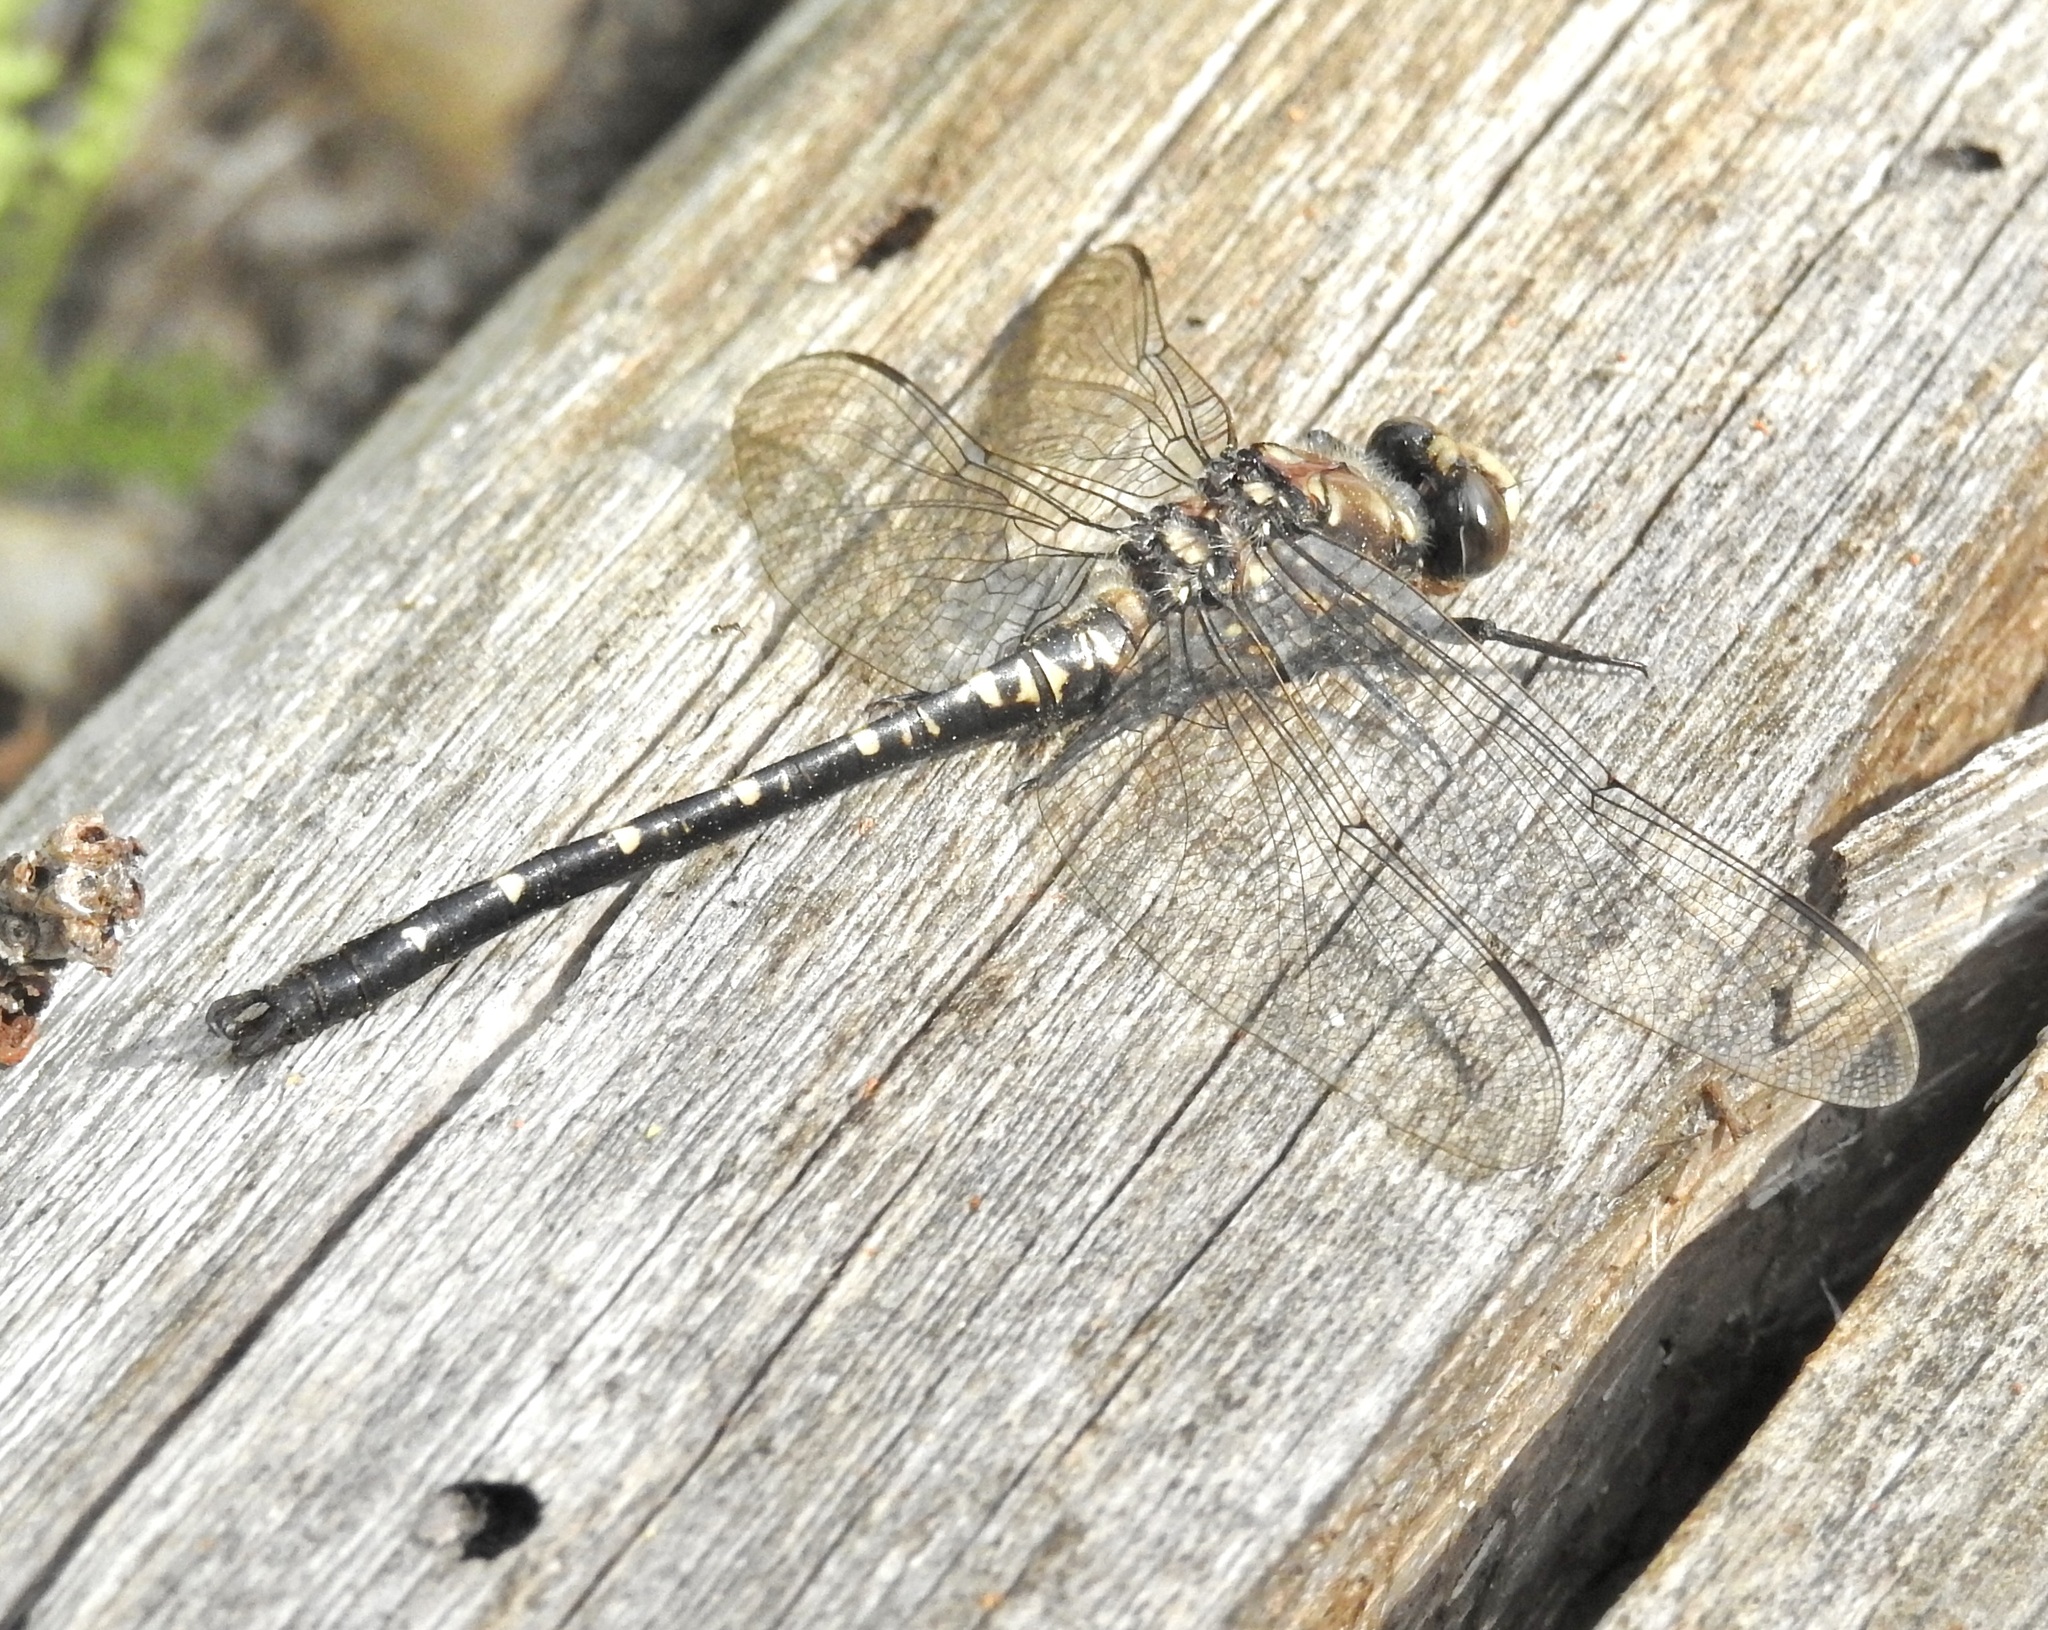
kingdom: Animalia
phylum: Arthropoda
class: Insecta
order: Odonata
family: Petaluridae
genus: Tanypteryx
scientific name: Tanypteryx hageni
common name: Black petaltail
